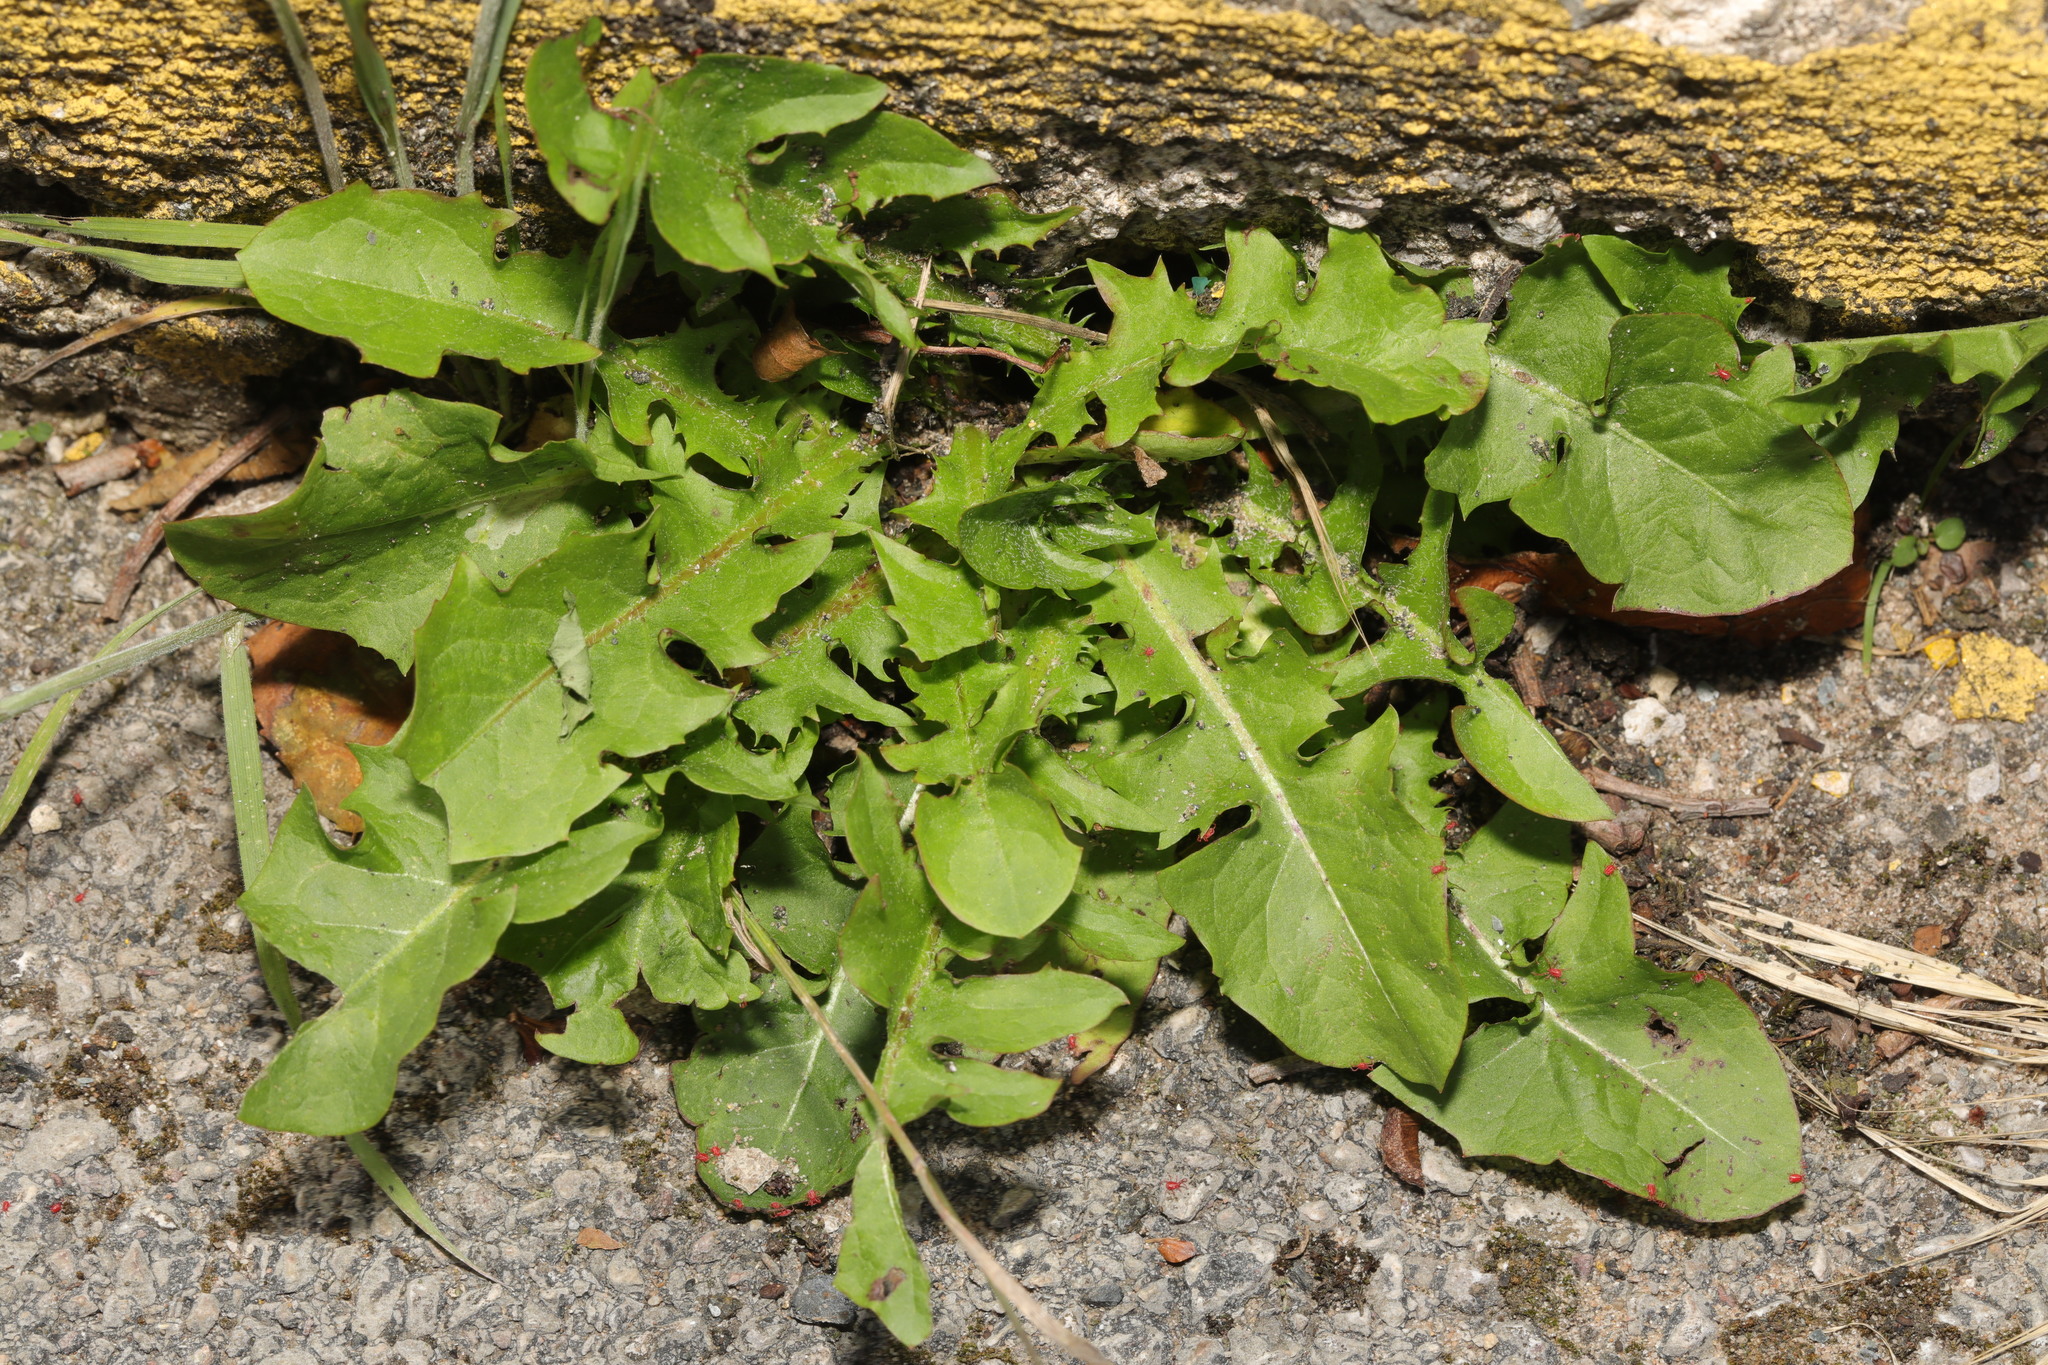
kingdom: Plantae
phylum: Tracheophyta
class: Magnoliopsida
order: Asterales
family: Asteraceae
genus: Taraxacum
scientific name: Taraxacum officinale
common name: Common dandelion
